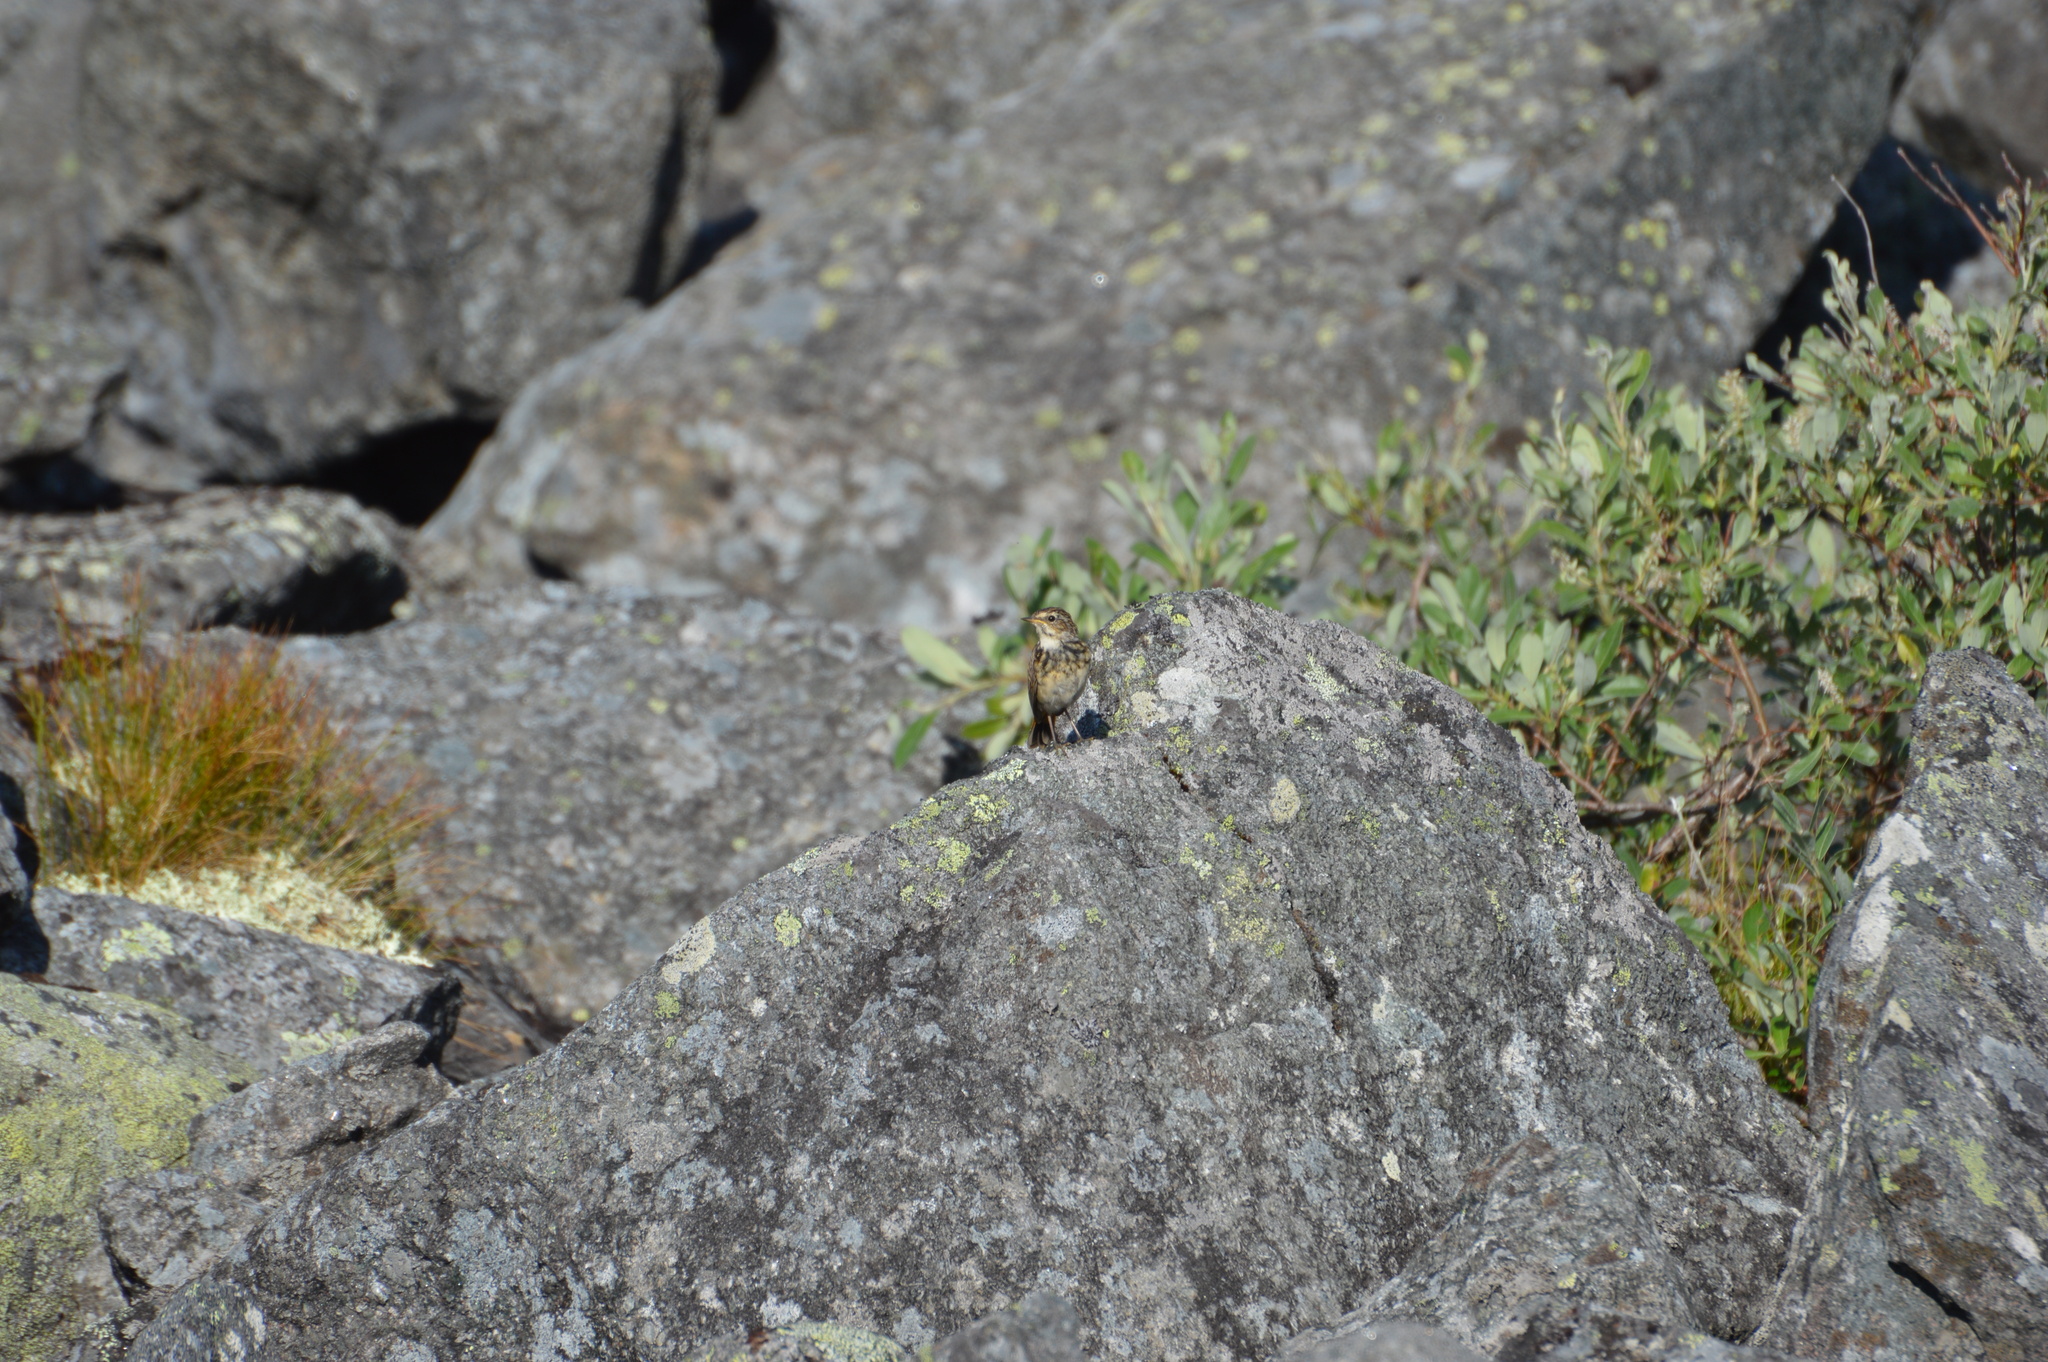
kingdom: Animalia
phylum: Chordata
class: Aves
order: Passeriformes
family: Muscicapidae
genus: Luscinia
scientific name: Luscinia svecica
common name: Bluethroat
